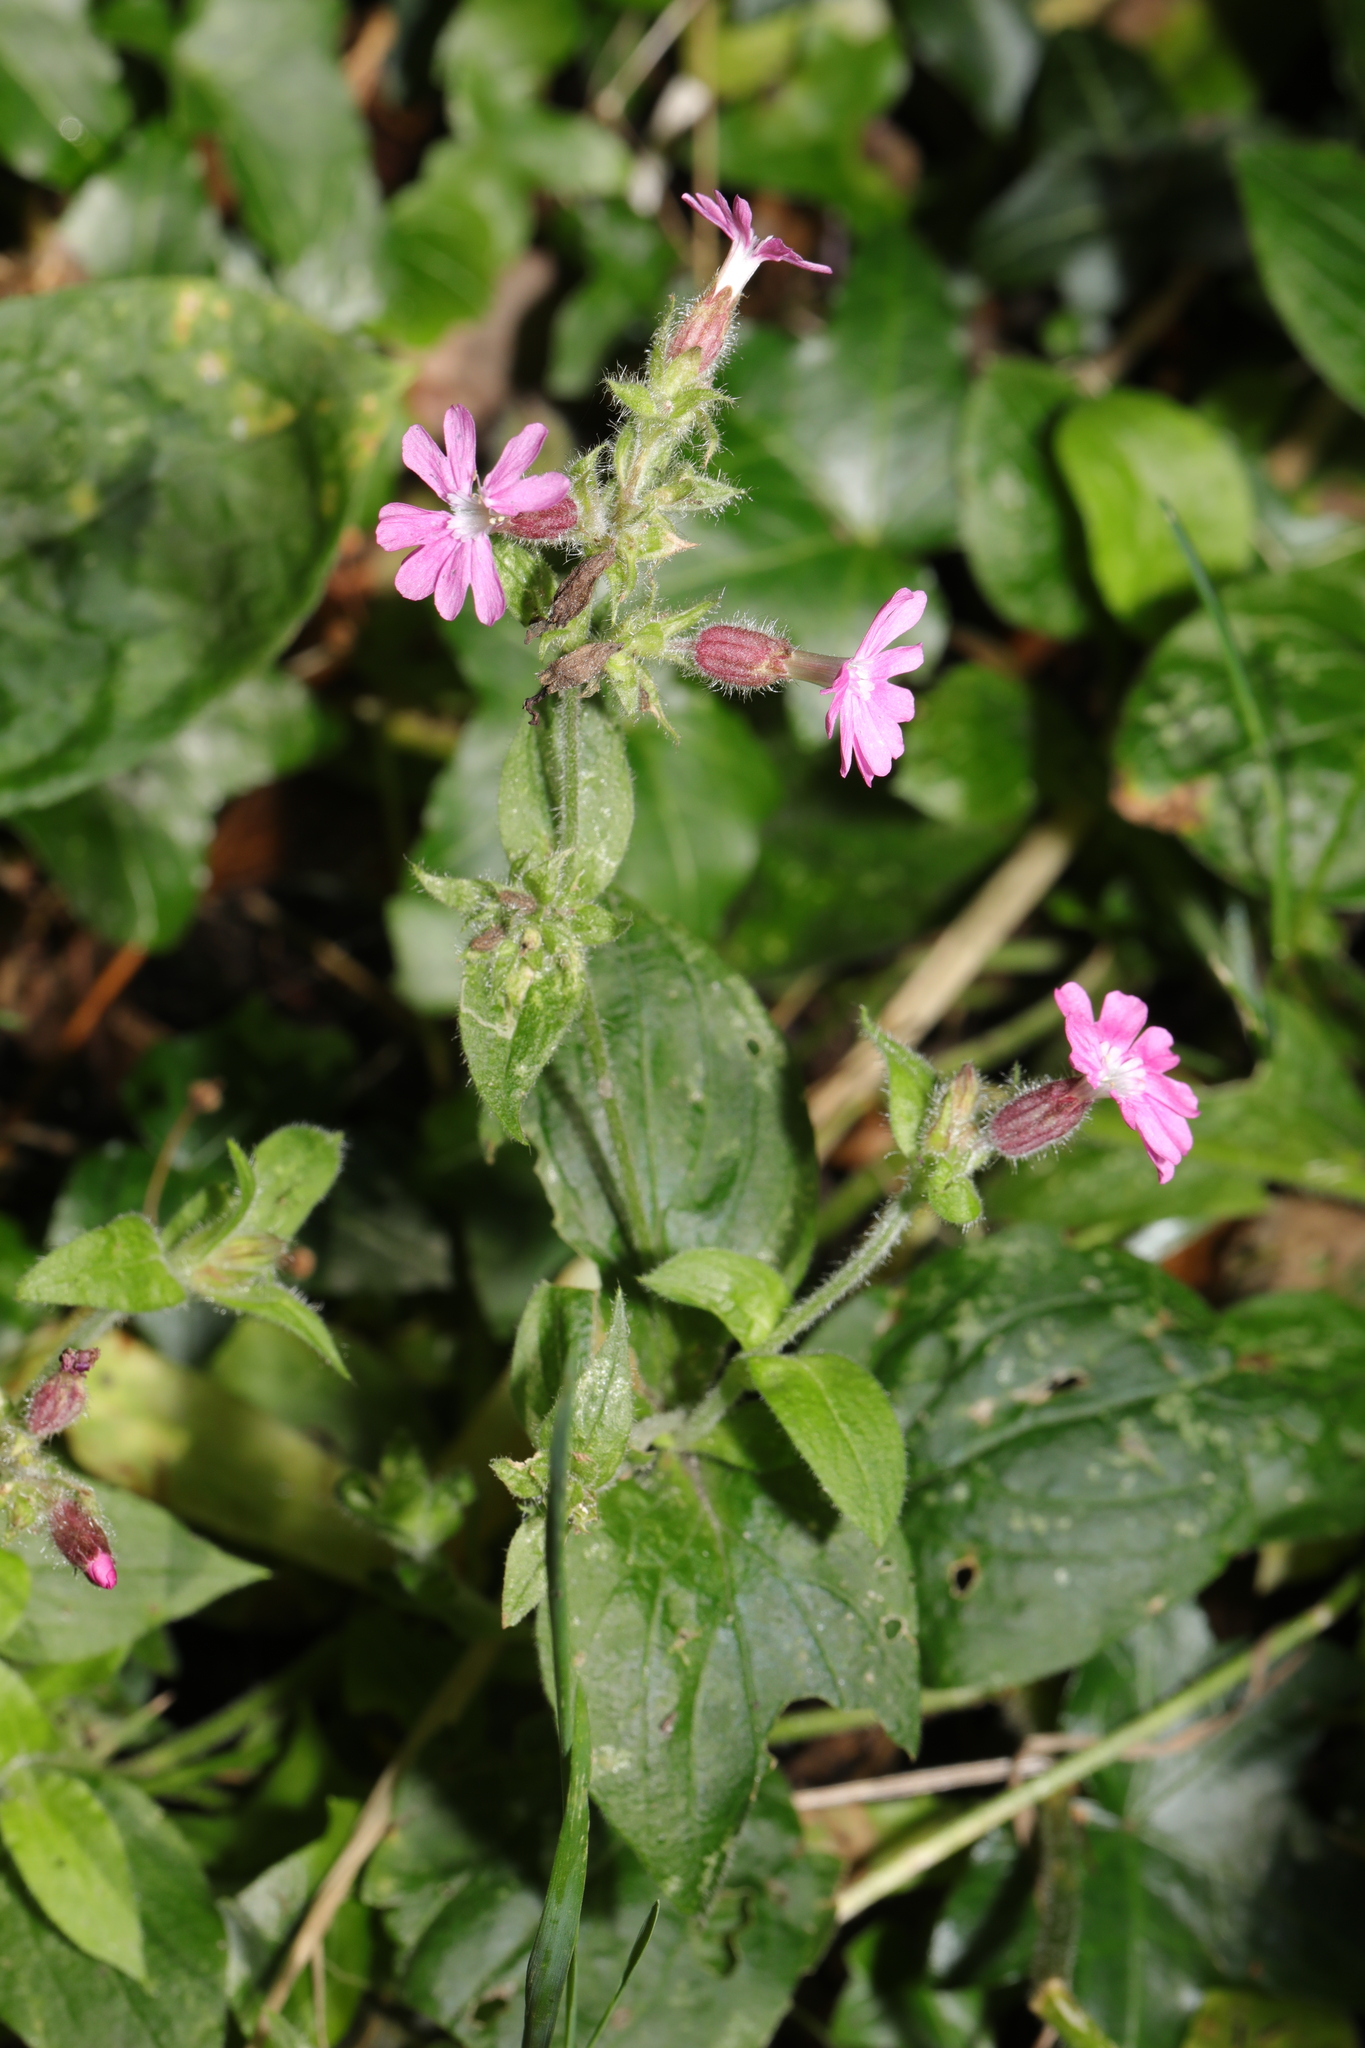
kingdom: Plantae
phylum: Tracheophyta
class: Magnoliopsida
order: Caryophyllales
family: Caryophyllaceae
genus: Silene
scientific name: Silene dioica
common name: Red campion
